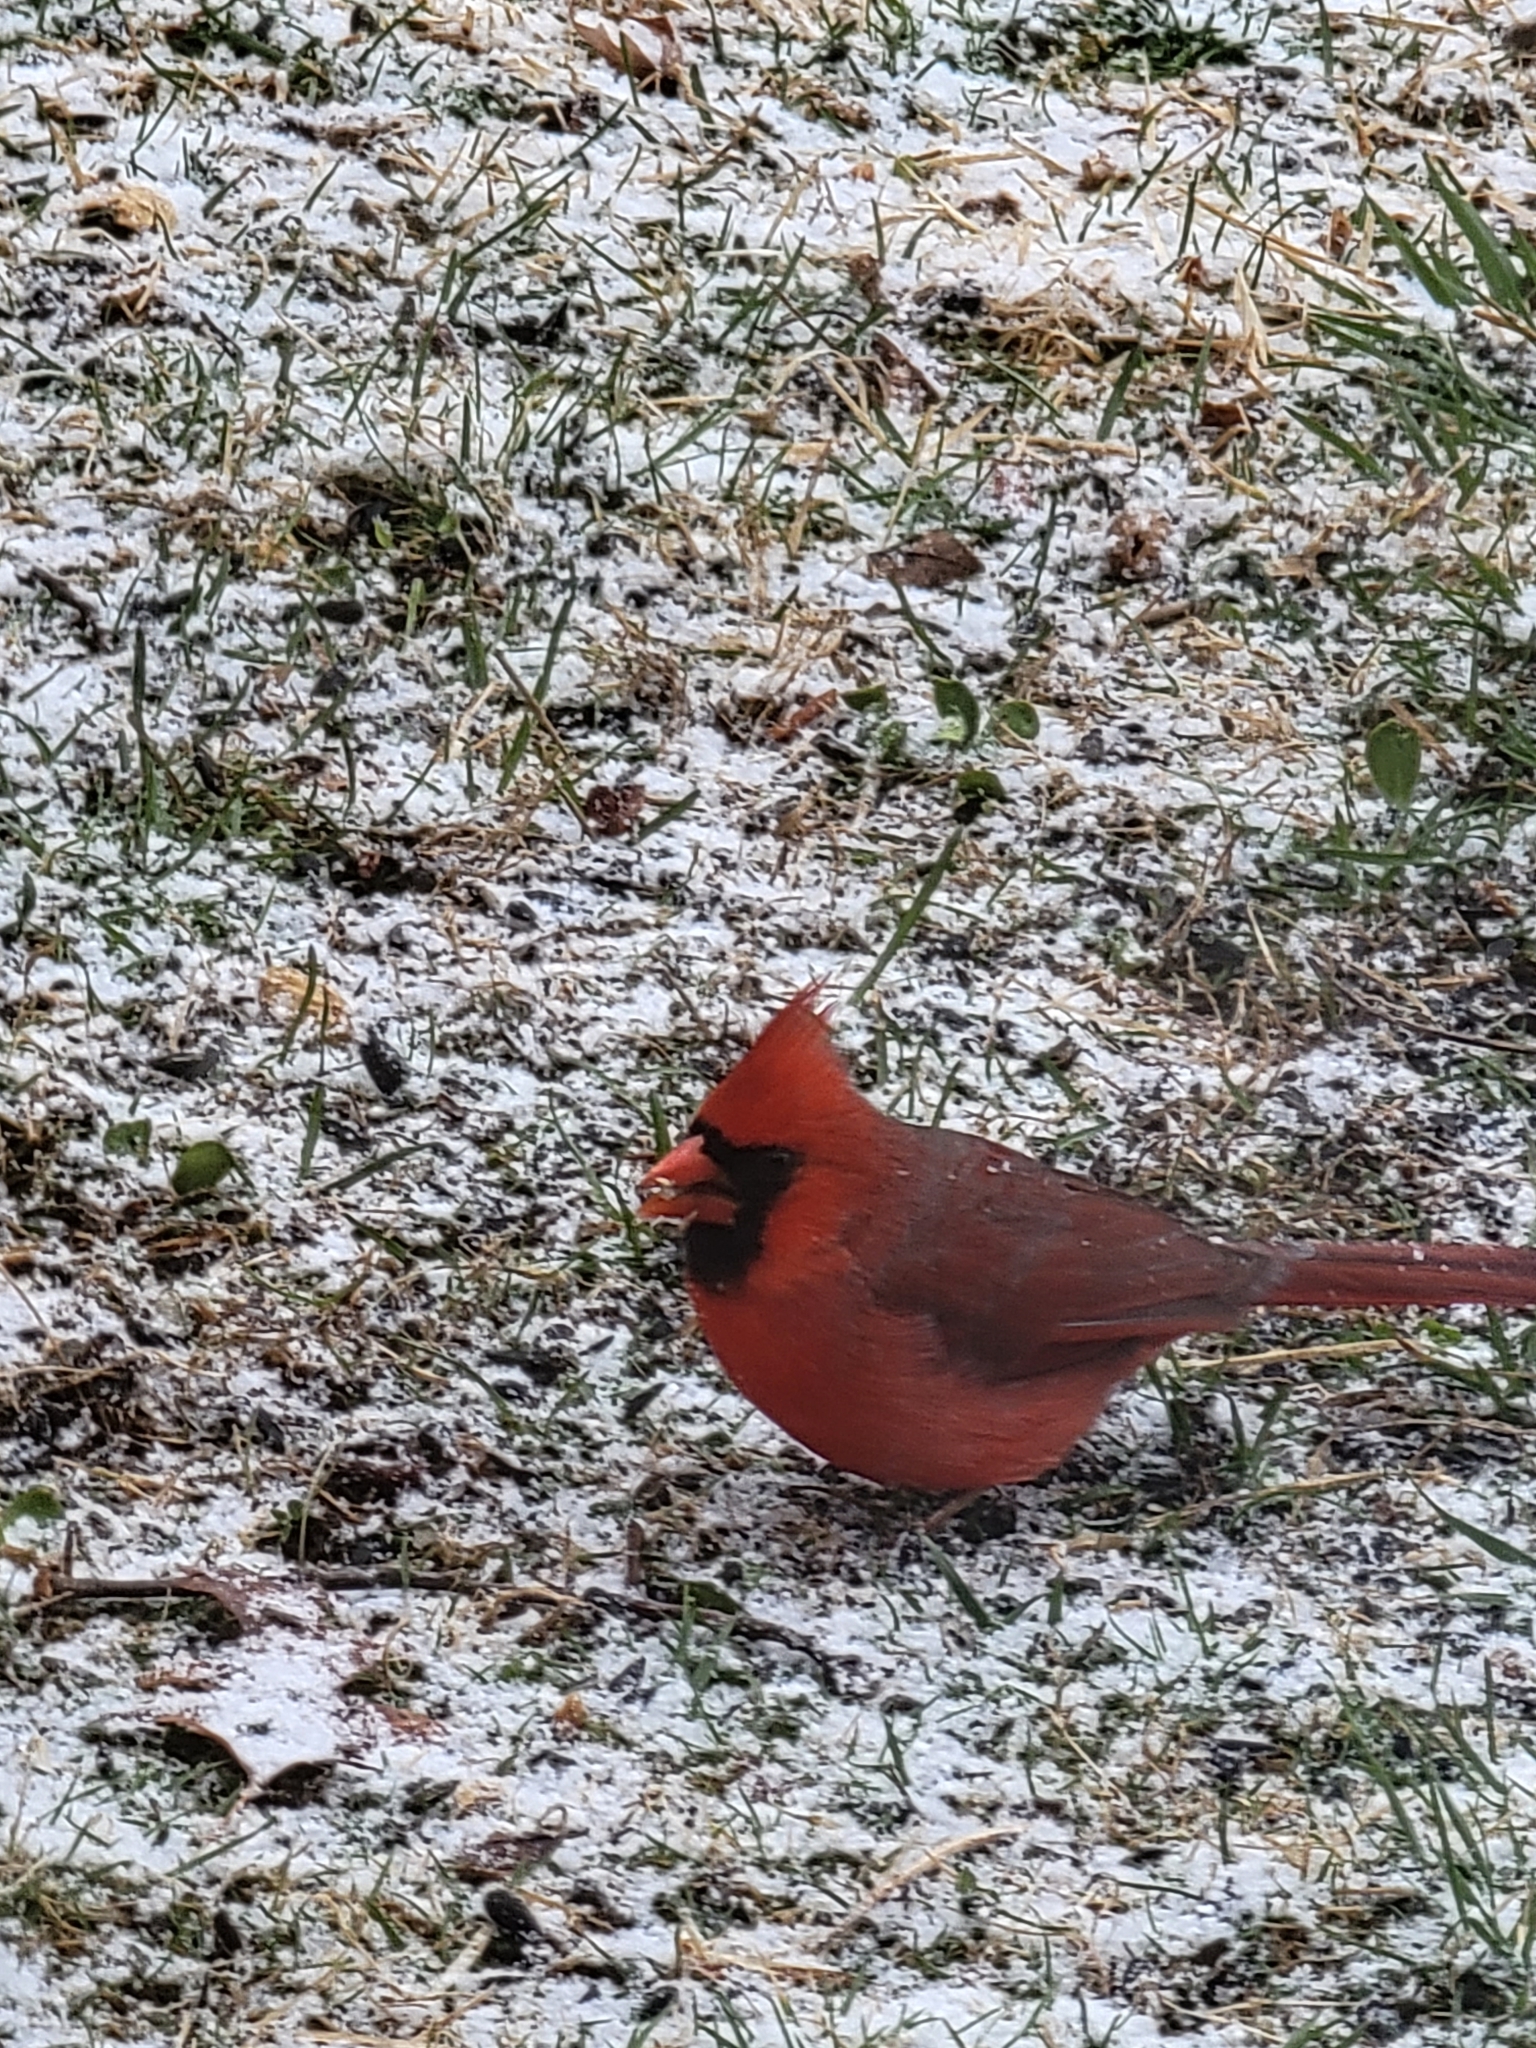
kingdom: Animalia
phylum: Chordata
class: Aves
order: Passeriformes
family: Cardinalidae
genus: Cardinalis
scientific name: Cardinalis cardinalis
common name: Northern cardinal
